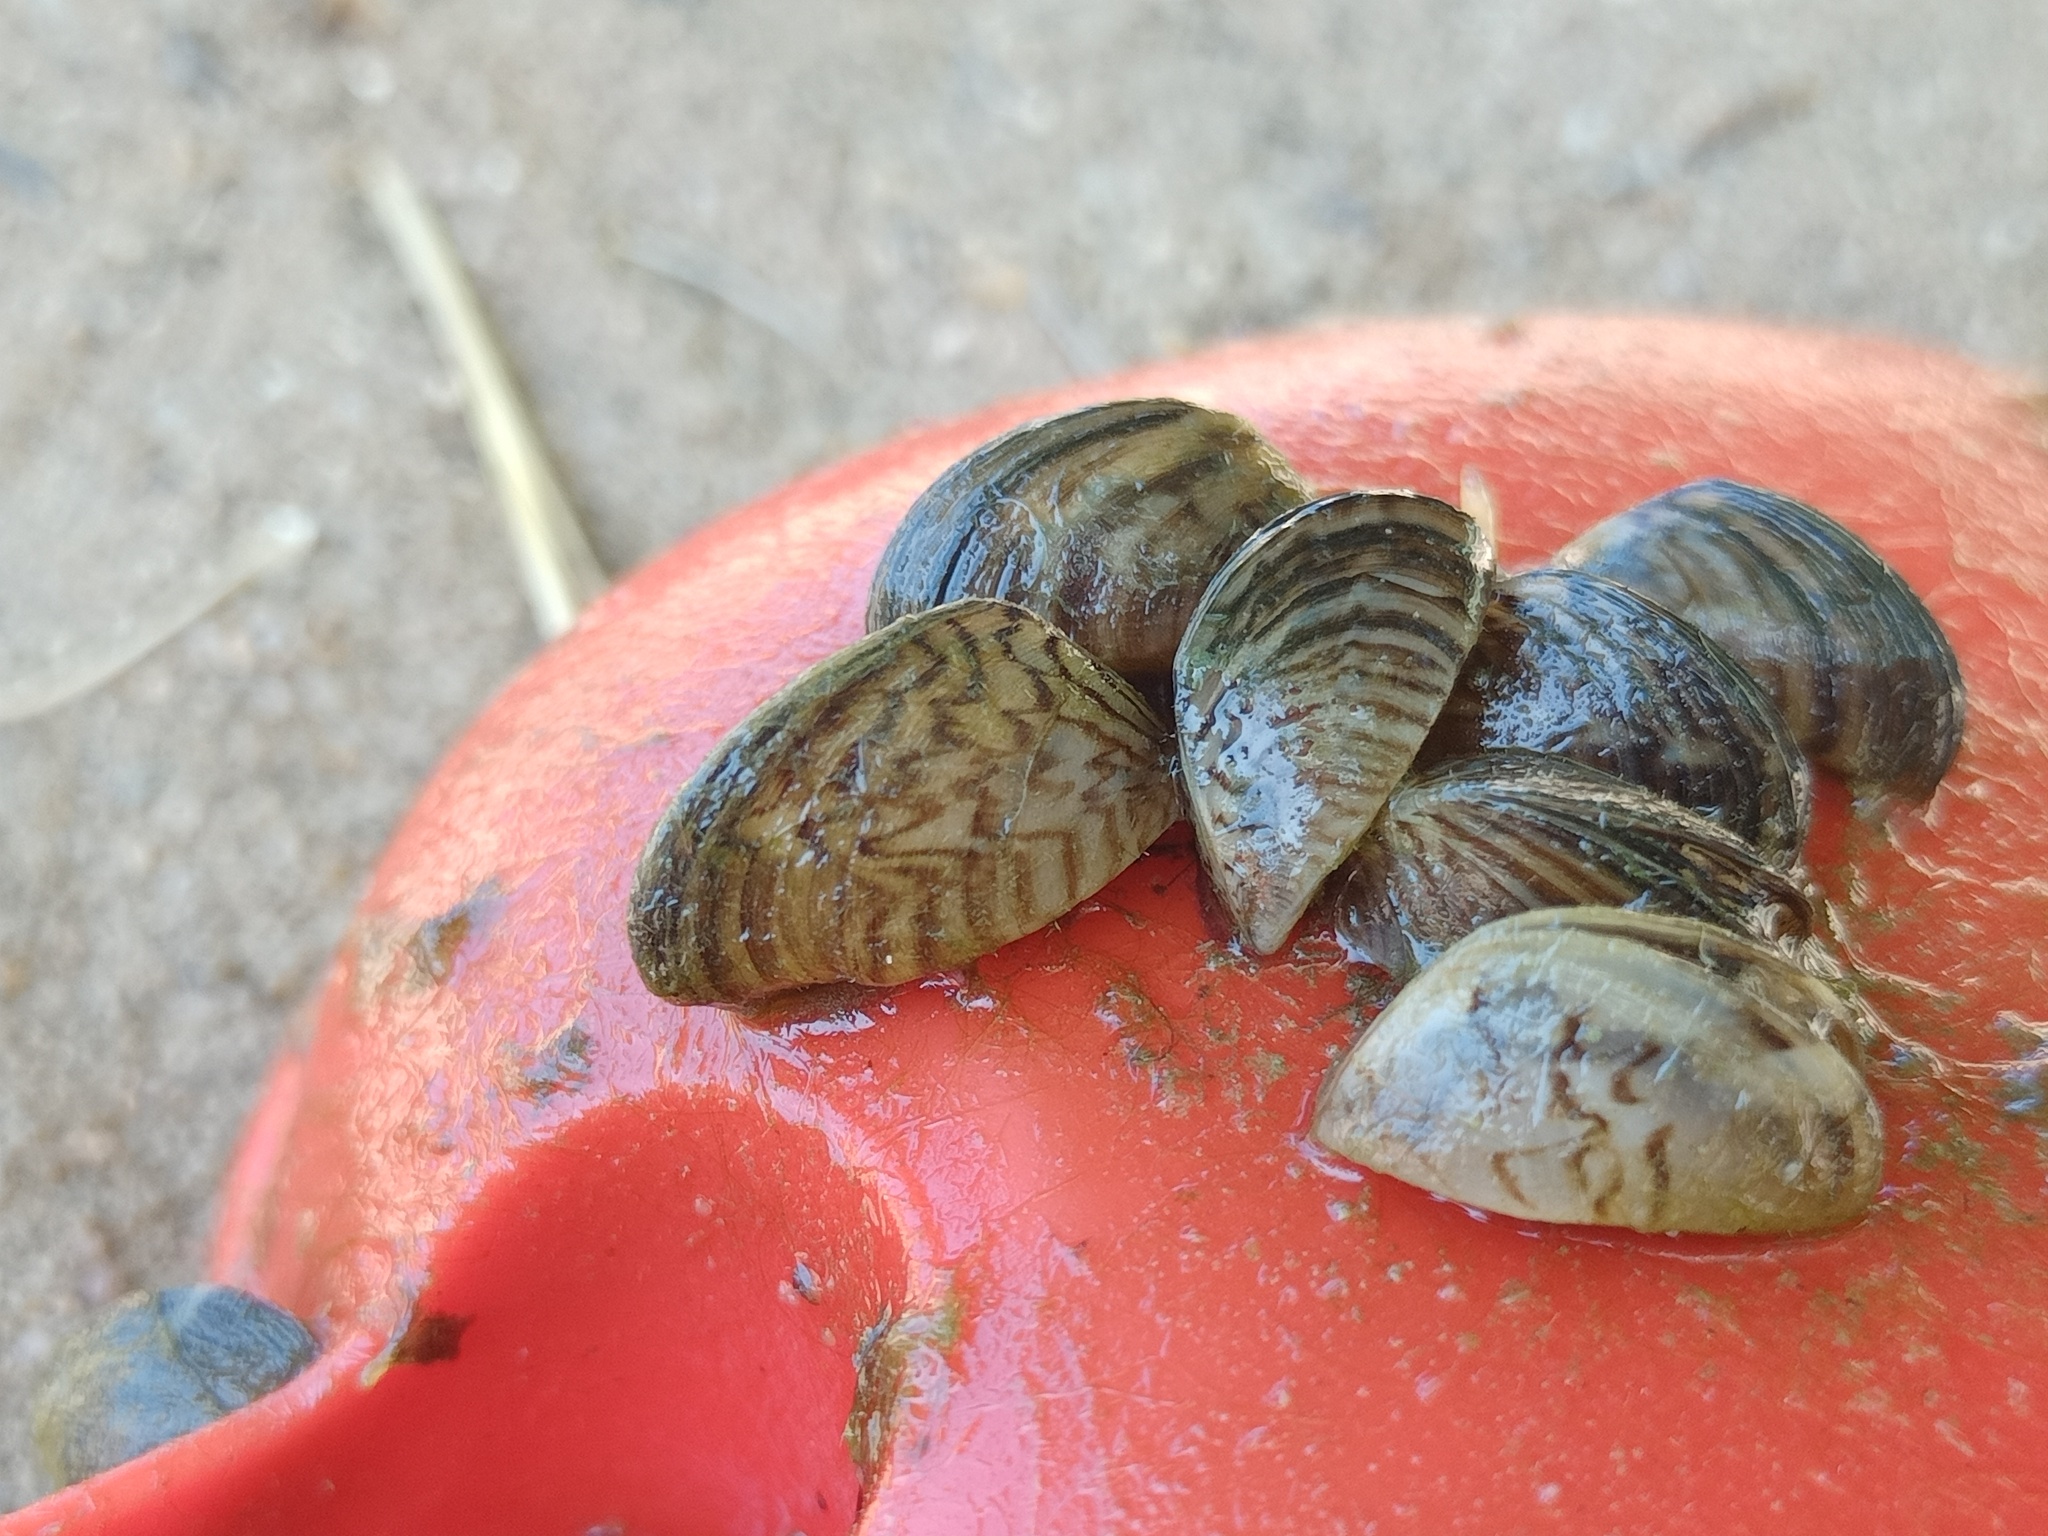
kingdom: Animalia
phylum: Mollusca
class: Bivalvia
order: Myida
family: Dreissenidae
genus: Dreissena
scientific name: Dreissena polymorpha
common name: Zebra mussel
